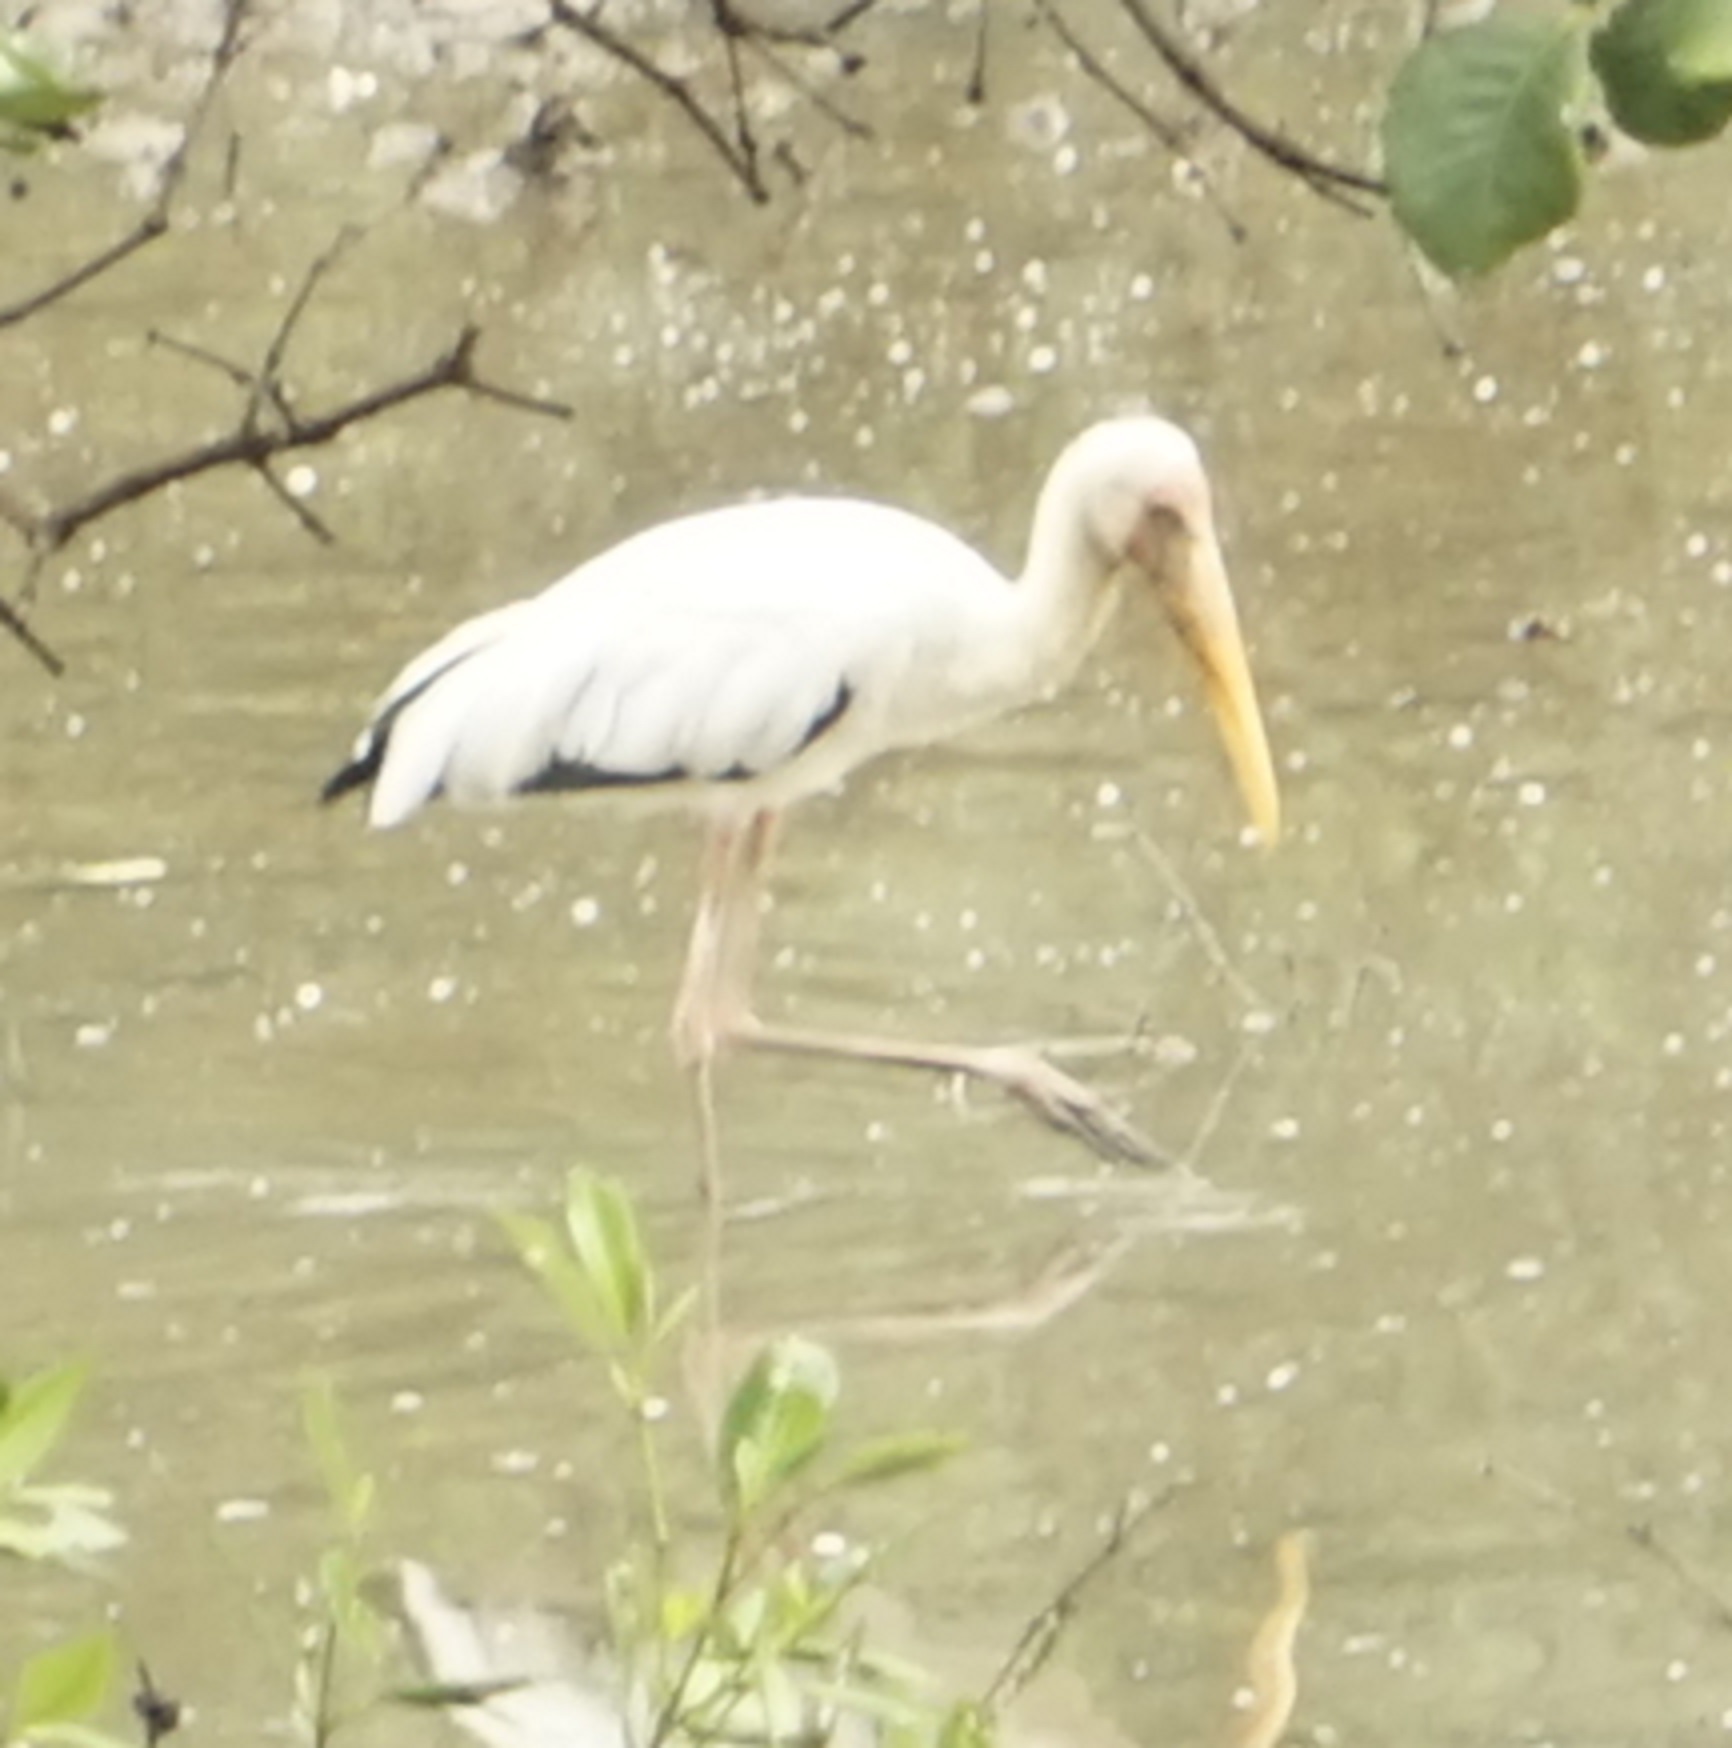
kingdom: Animalia
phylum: Chordata
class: Aves
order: Ciconiiformes
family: Ciconiidae
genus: Mycteria
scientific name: Mycteria cinerea
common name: Milky stork
